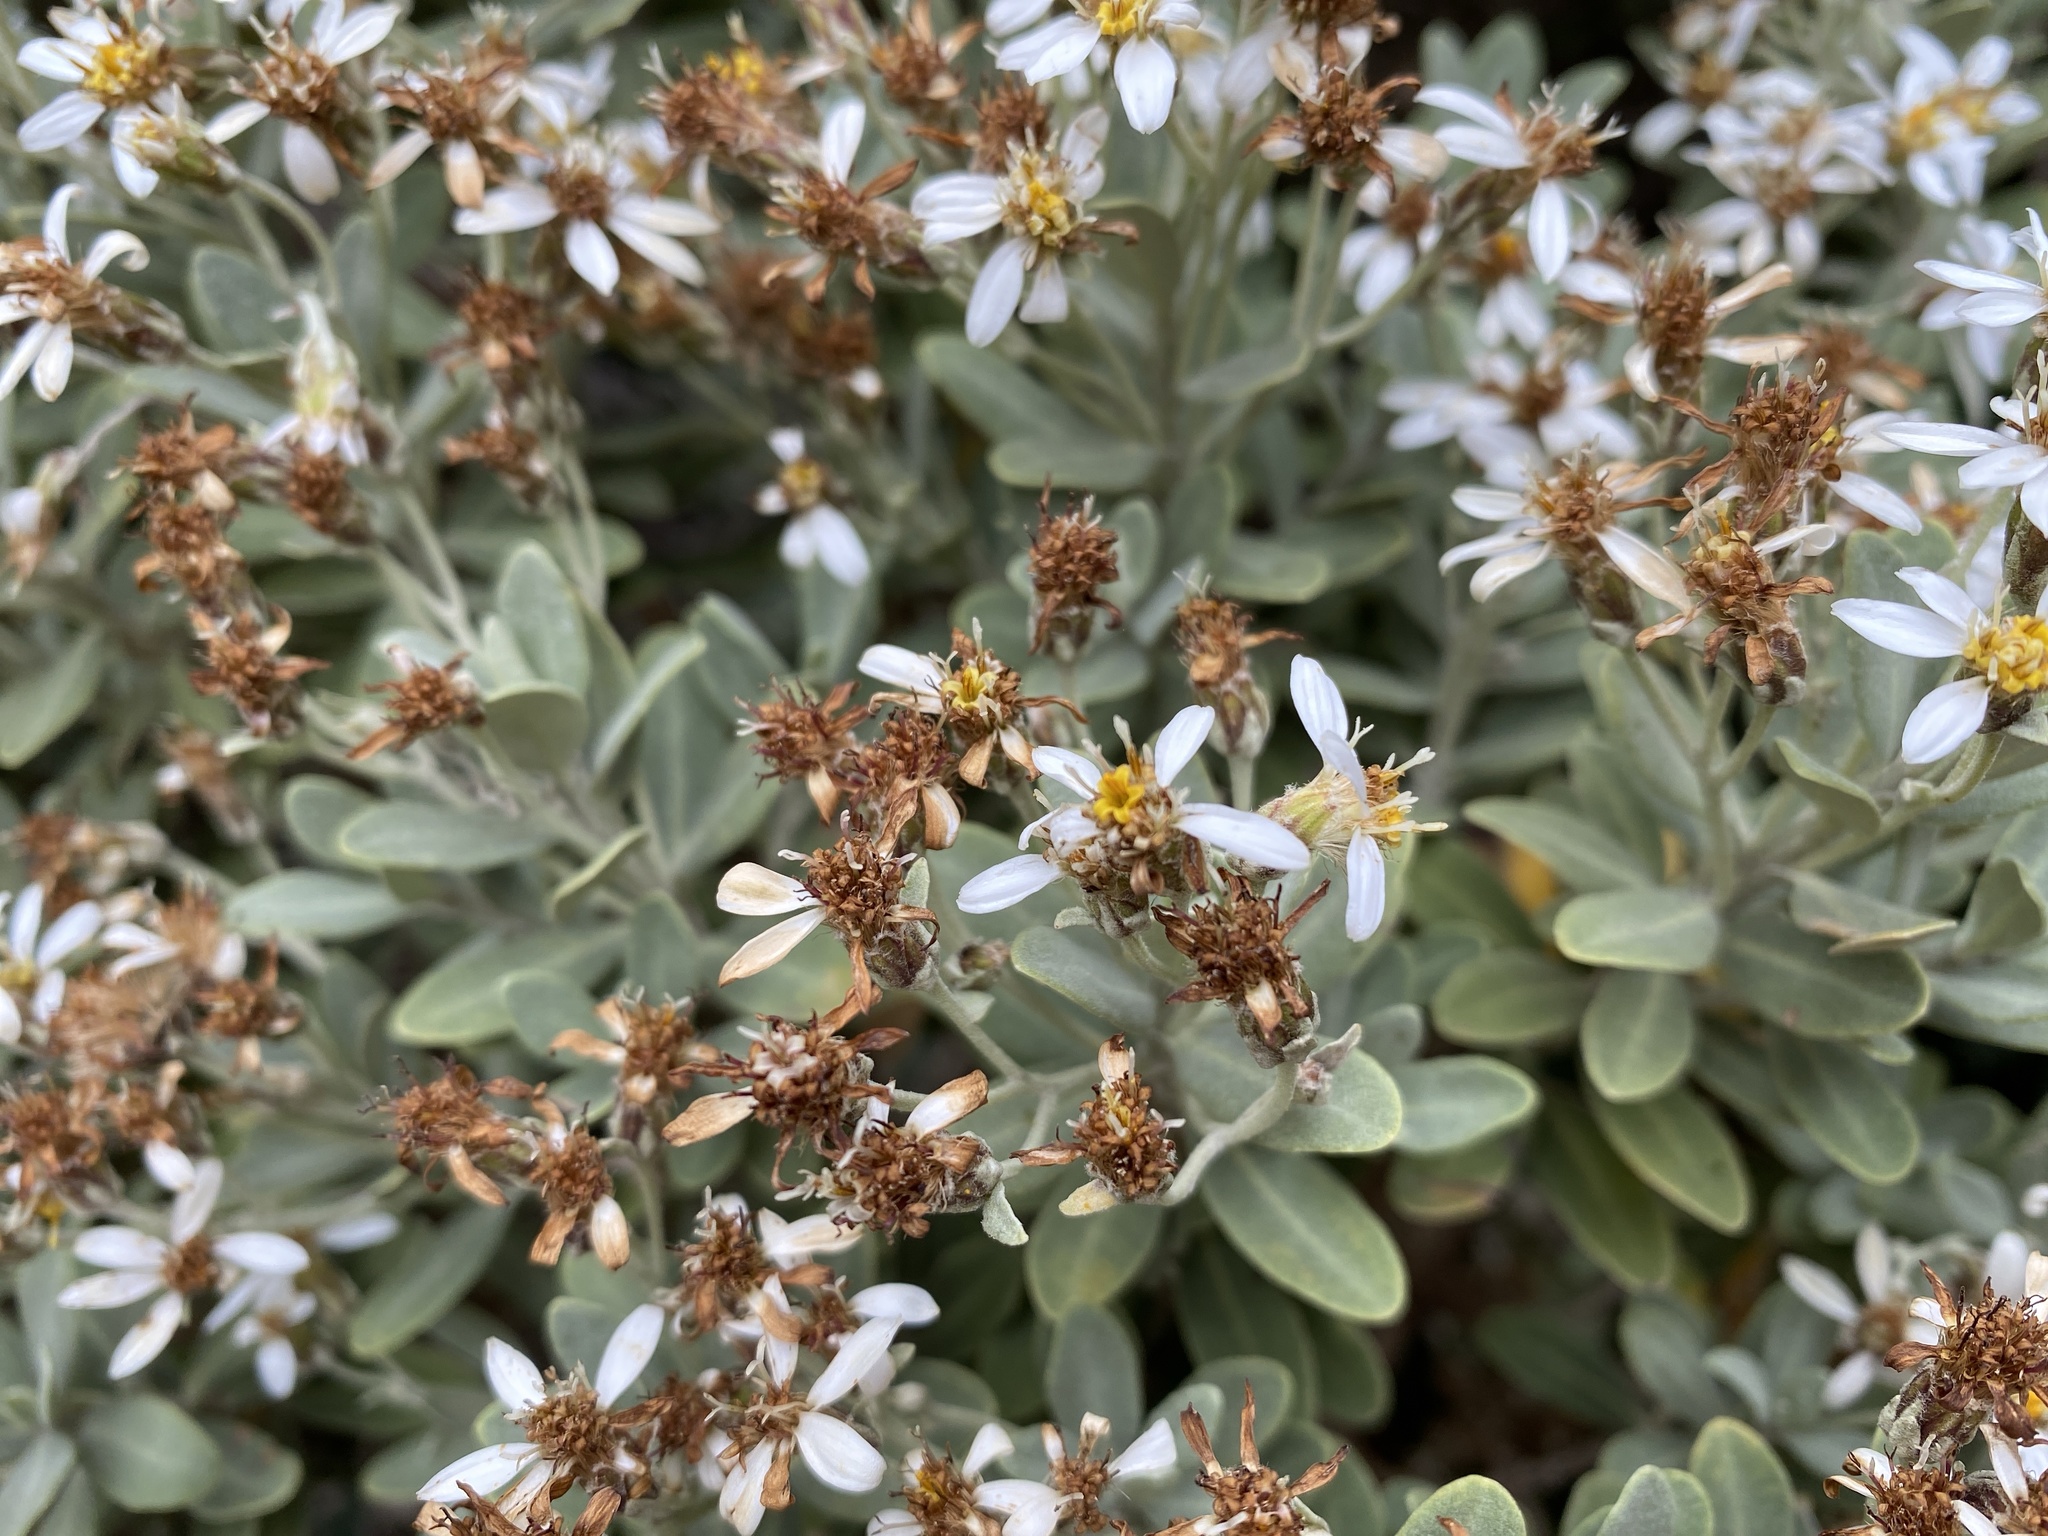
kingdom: Plantae
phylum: Tracheophyta
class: Magnoliopsida
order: Asterales
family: Asteraceae
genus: Olearia
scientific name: Olearia moschata
